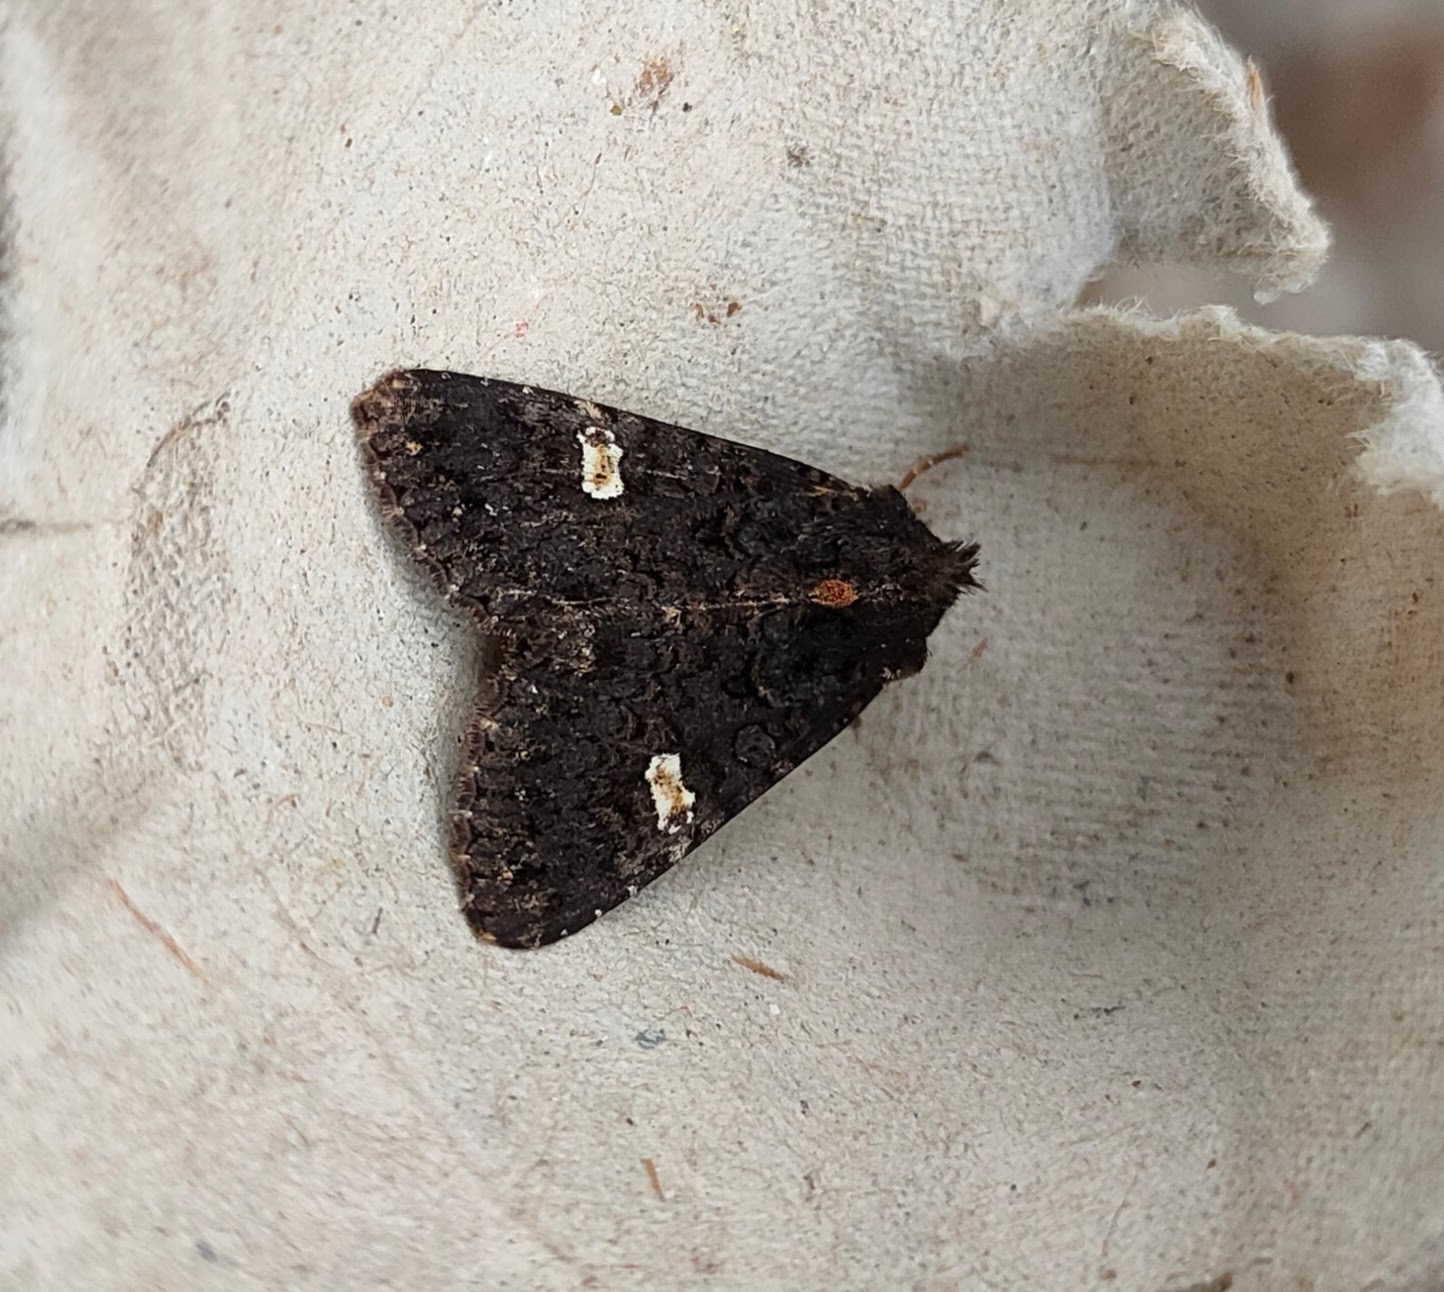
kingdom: Animalia
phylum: Arthropoda
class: Insecta
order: Lepidoptera
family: Noctuidae
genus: Melanchra
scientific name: Melanchra persicariae
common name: Dot moth
